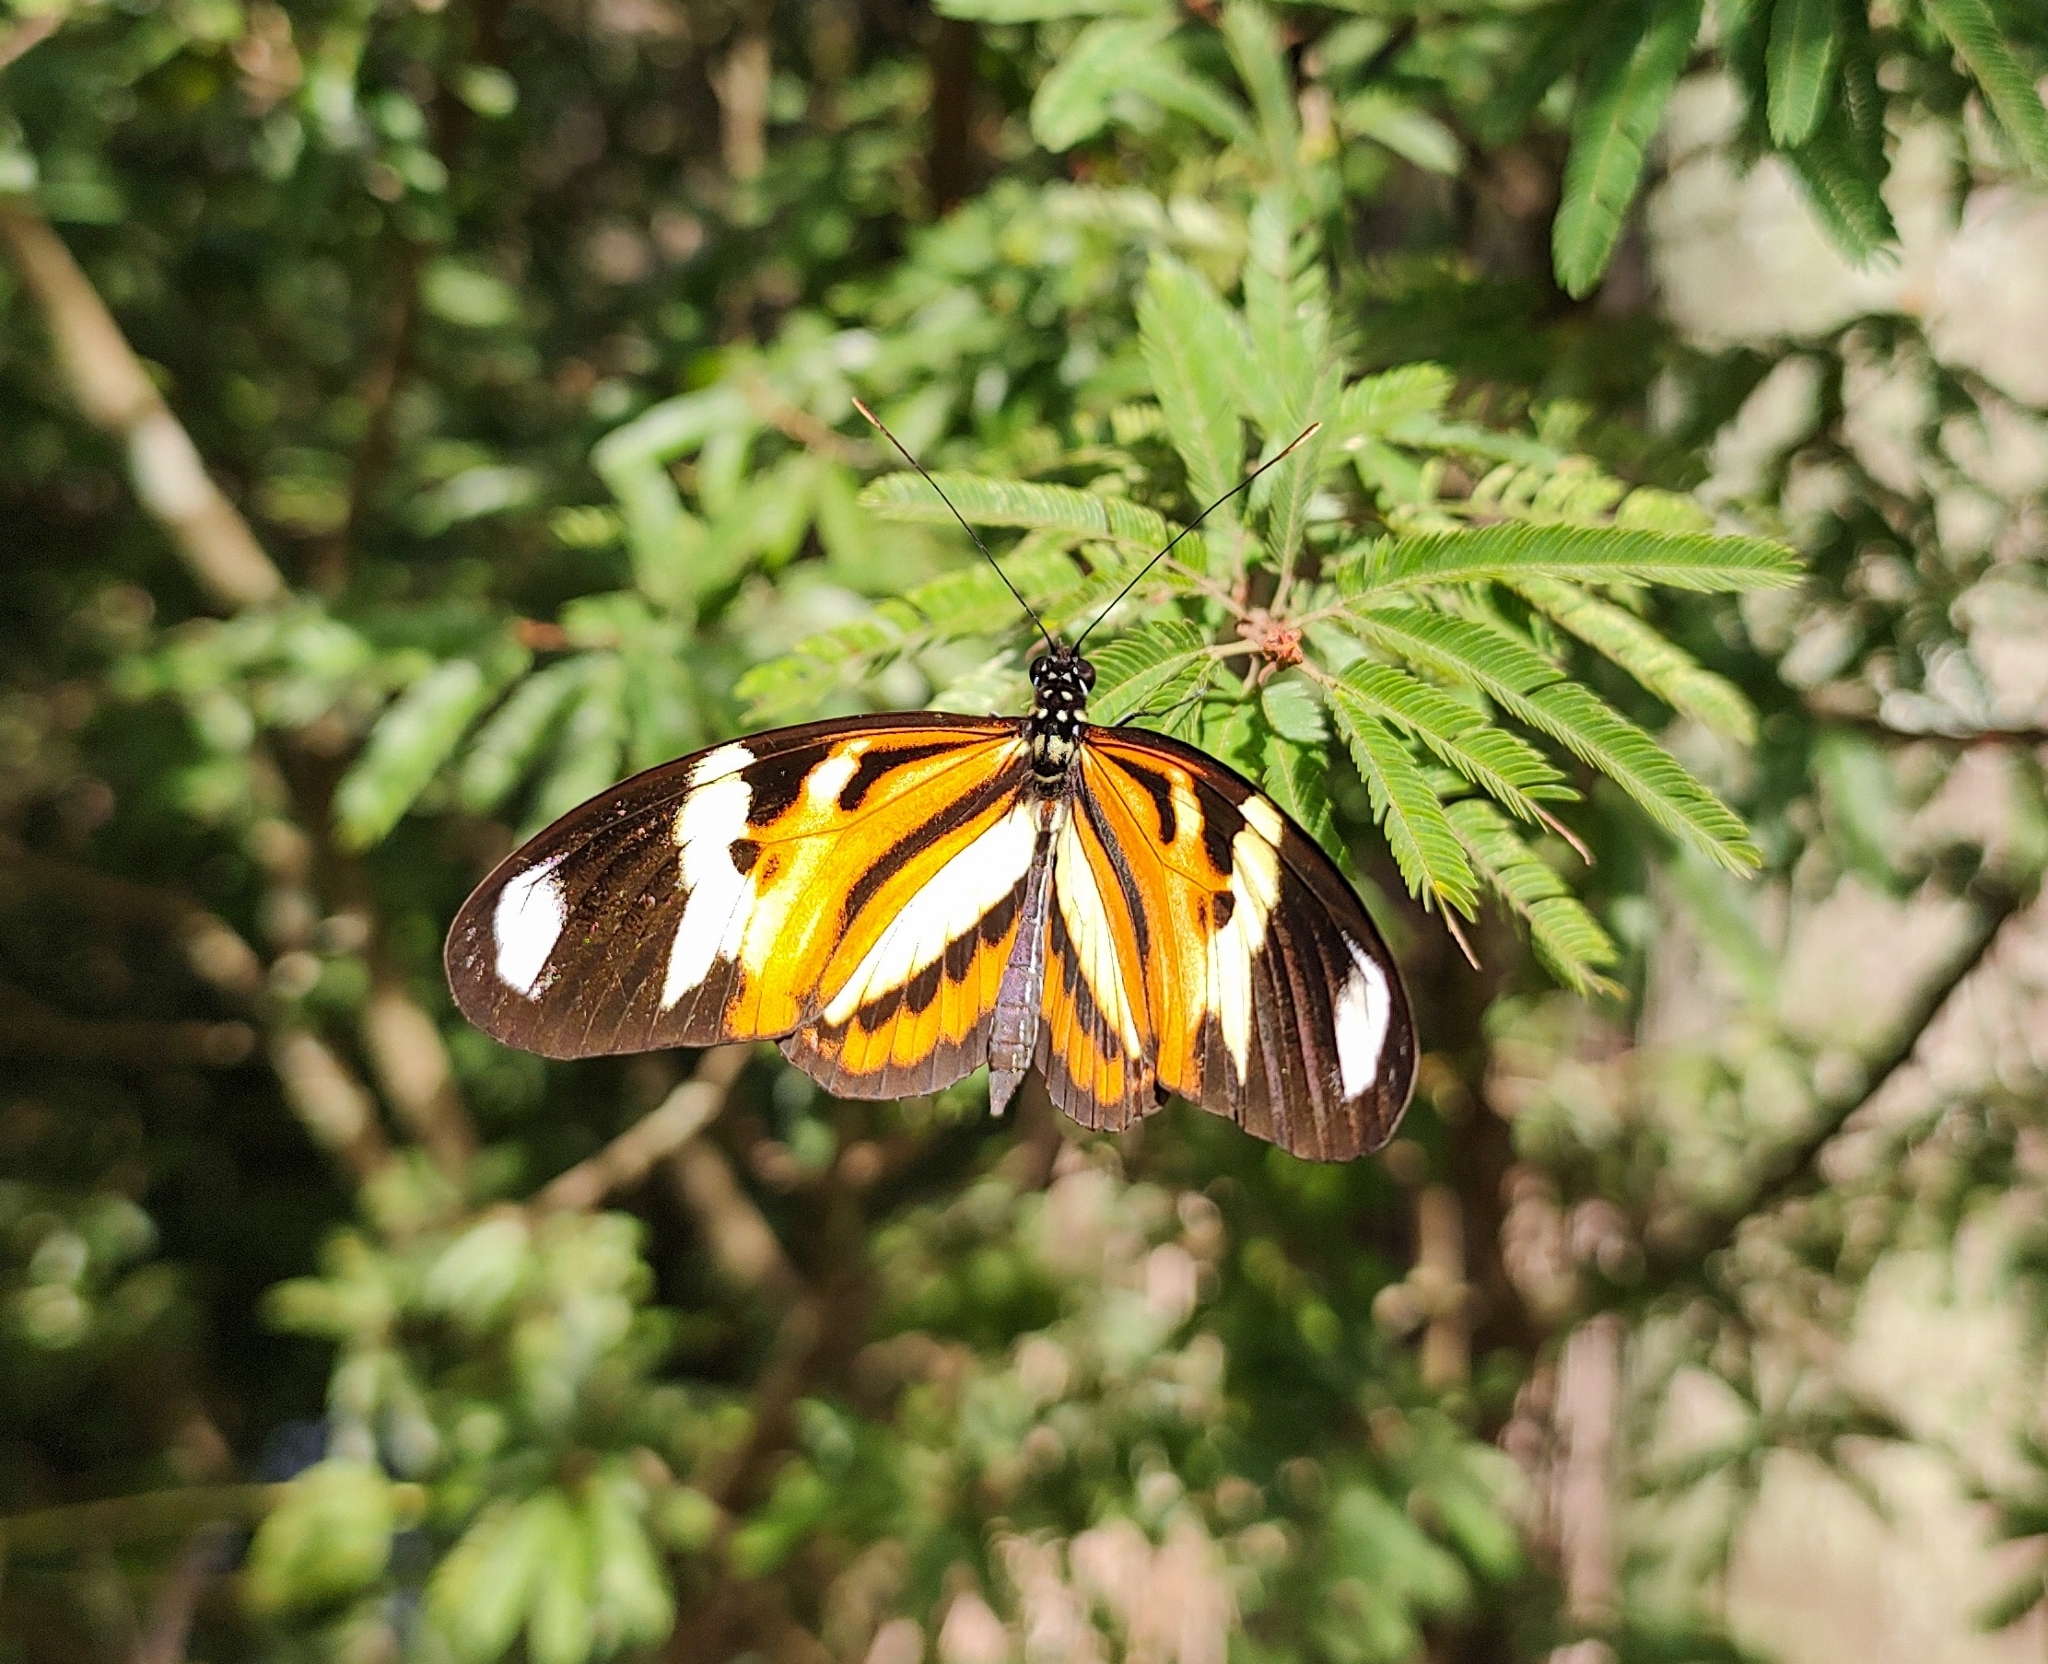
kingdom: Animalia
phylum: Arthropoda
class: Insecta
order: Lepidoptera
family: Nymphalidae
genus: Heliconius
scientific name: Heliconius ethilla
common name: Ethilia longwing
